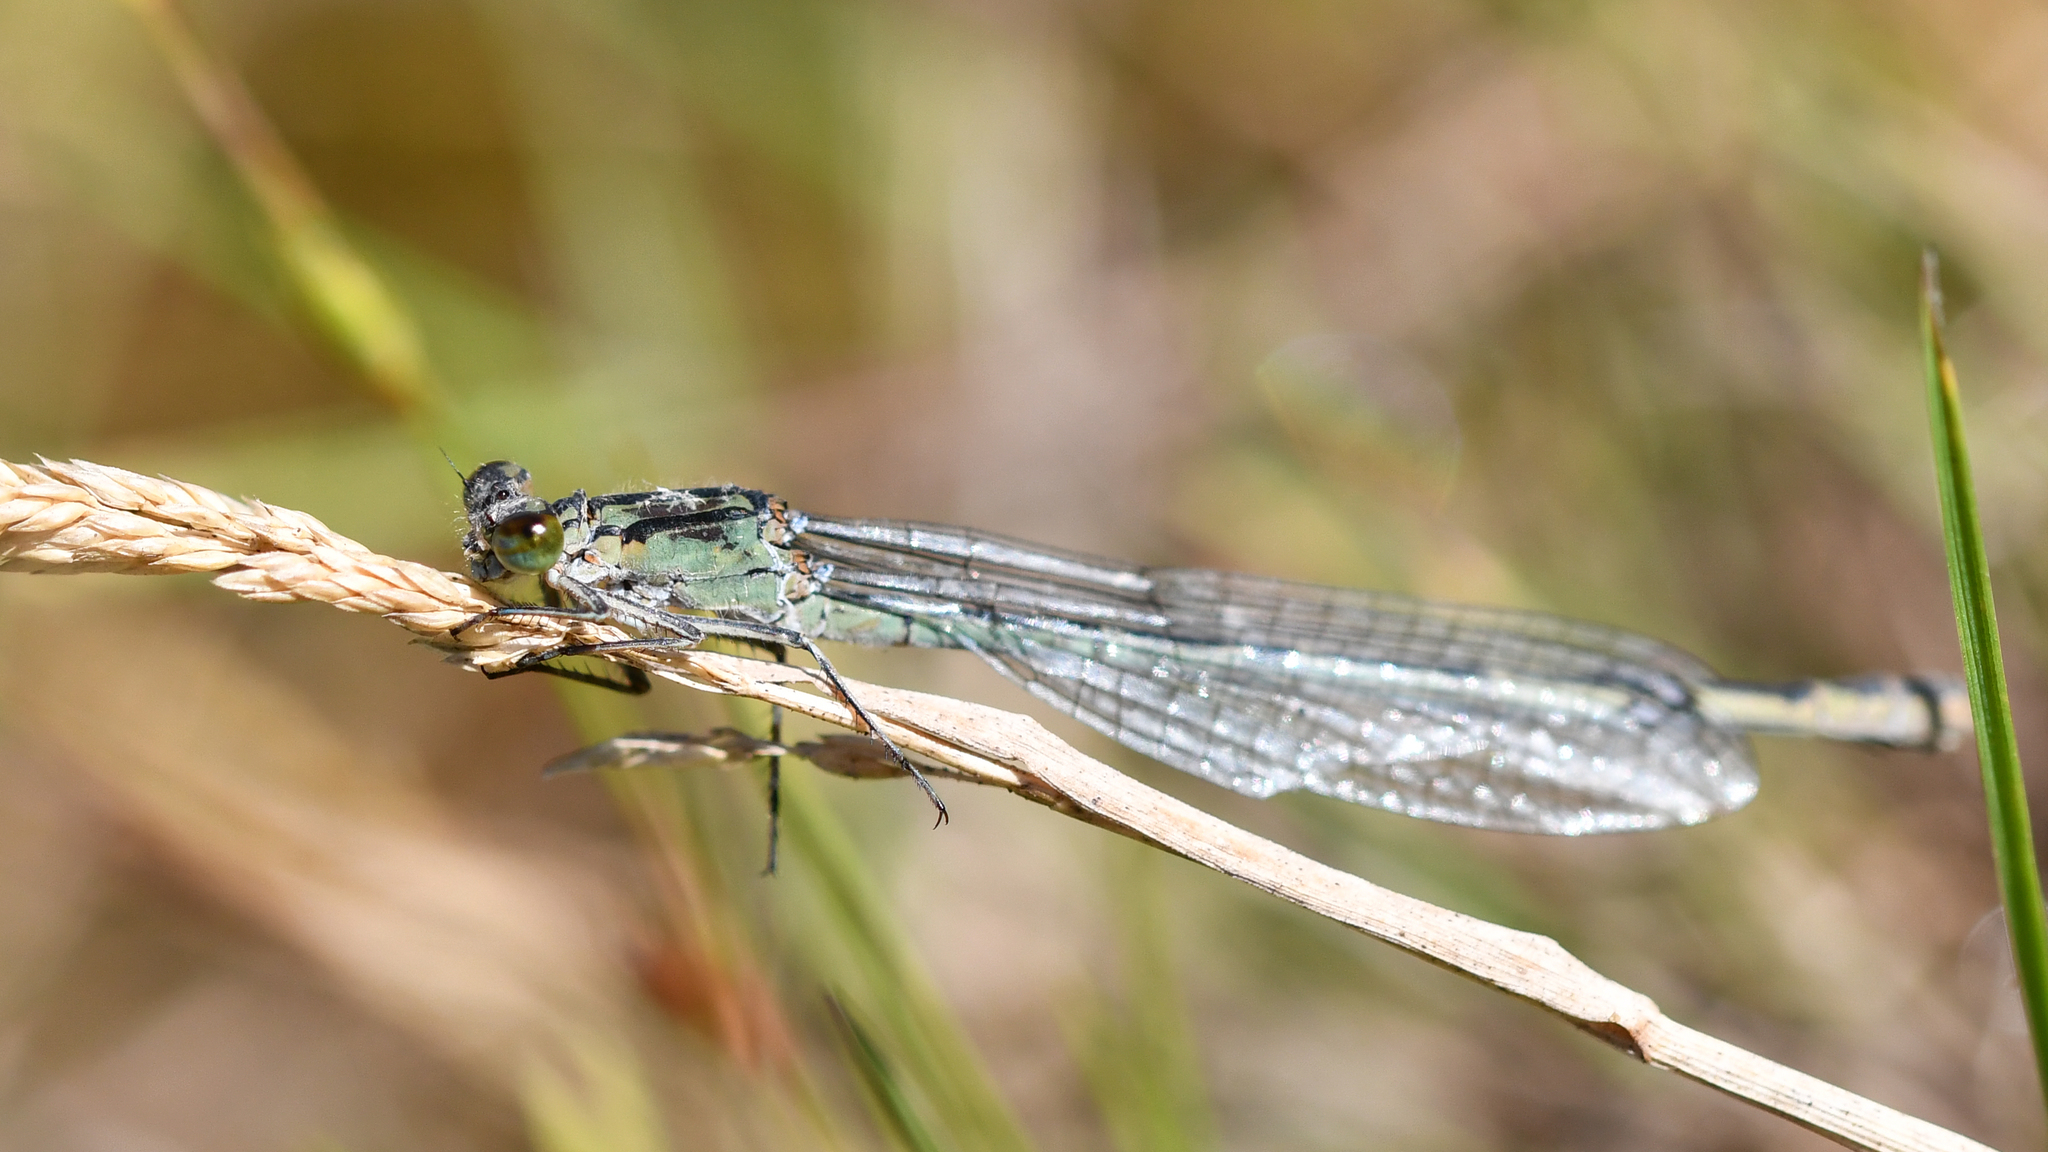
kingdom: Animalia
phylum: Arthropoda
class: Insecta
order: Odonata
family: Coenagrionidae
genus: Enallagma
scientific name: Enallagma cyathigerum
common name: Common blue damselfly
